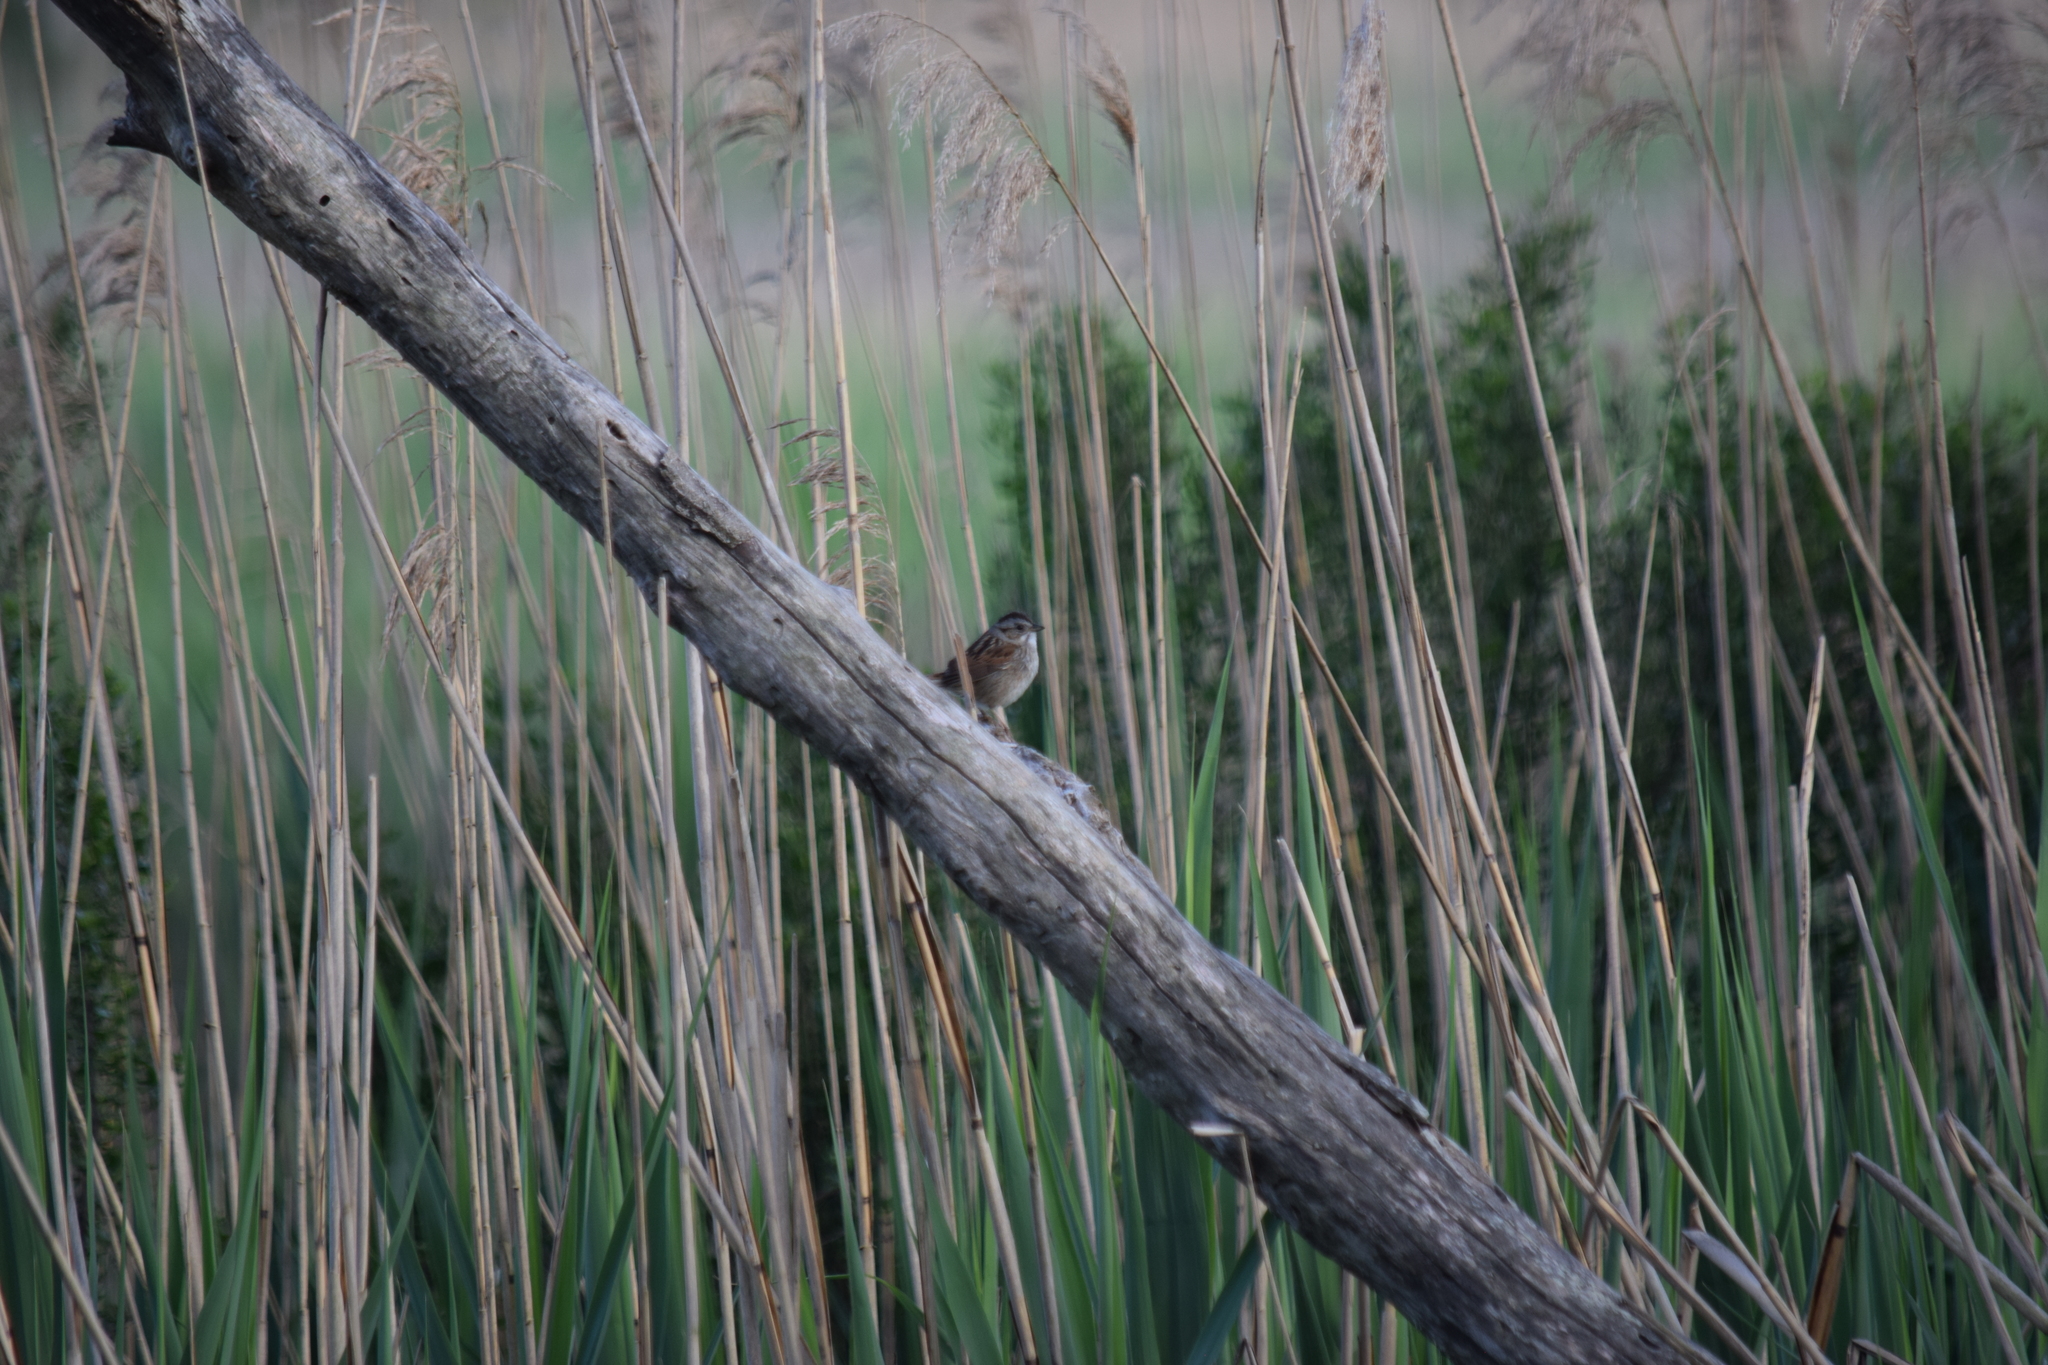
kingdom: Animalia
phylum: Chordata
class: Aves
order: Passeriformes
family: Passerellidae
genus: Melospiza
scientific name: Melospiza georgiana
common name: Swamp sparrow
